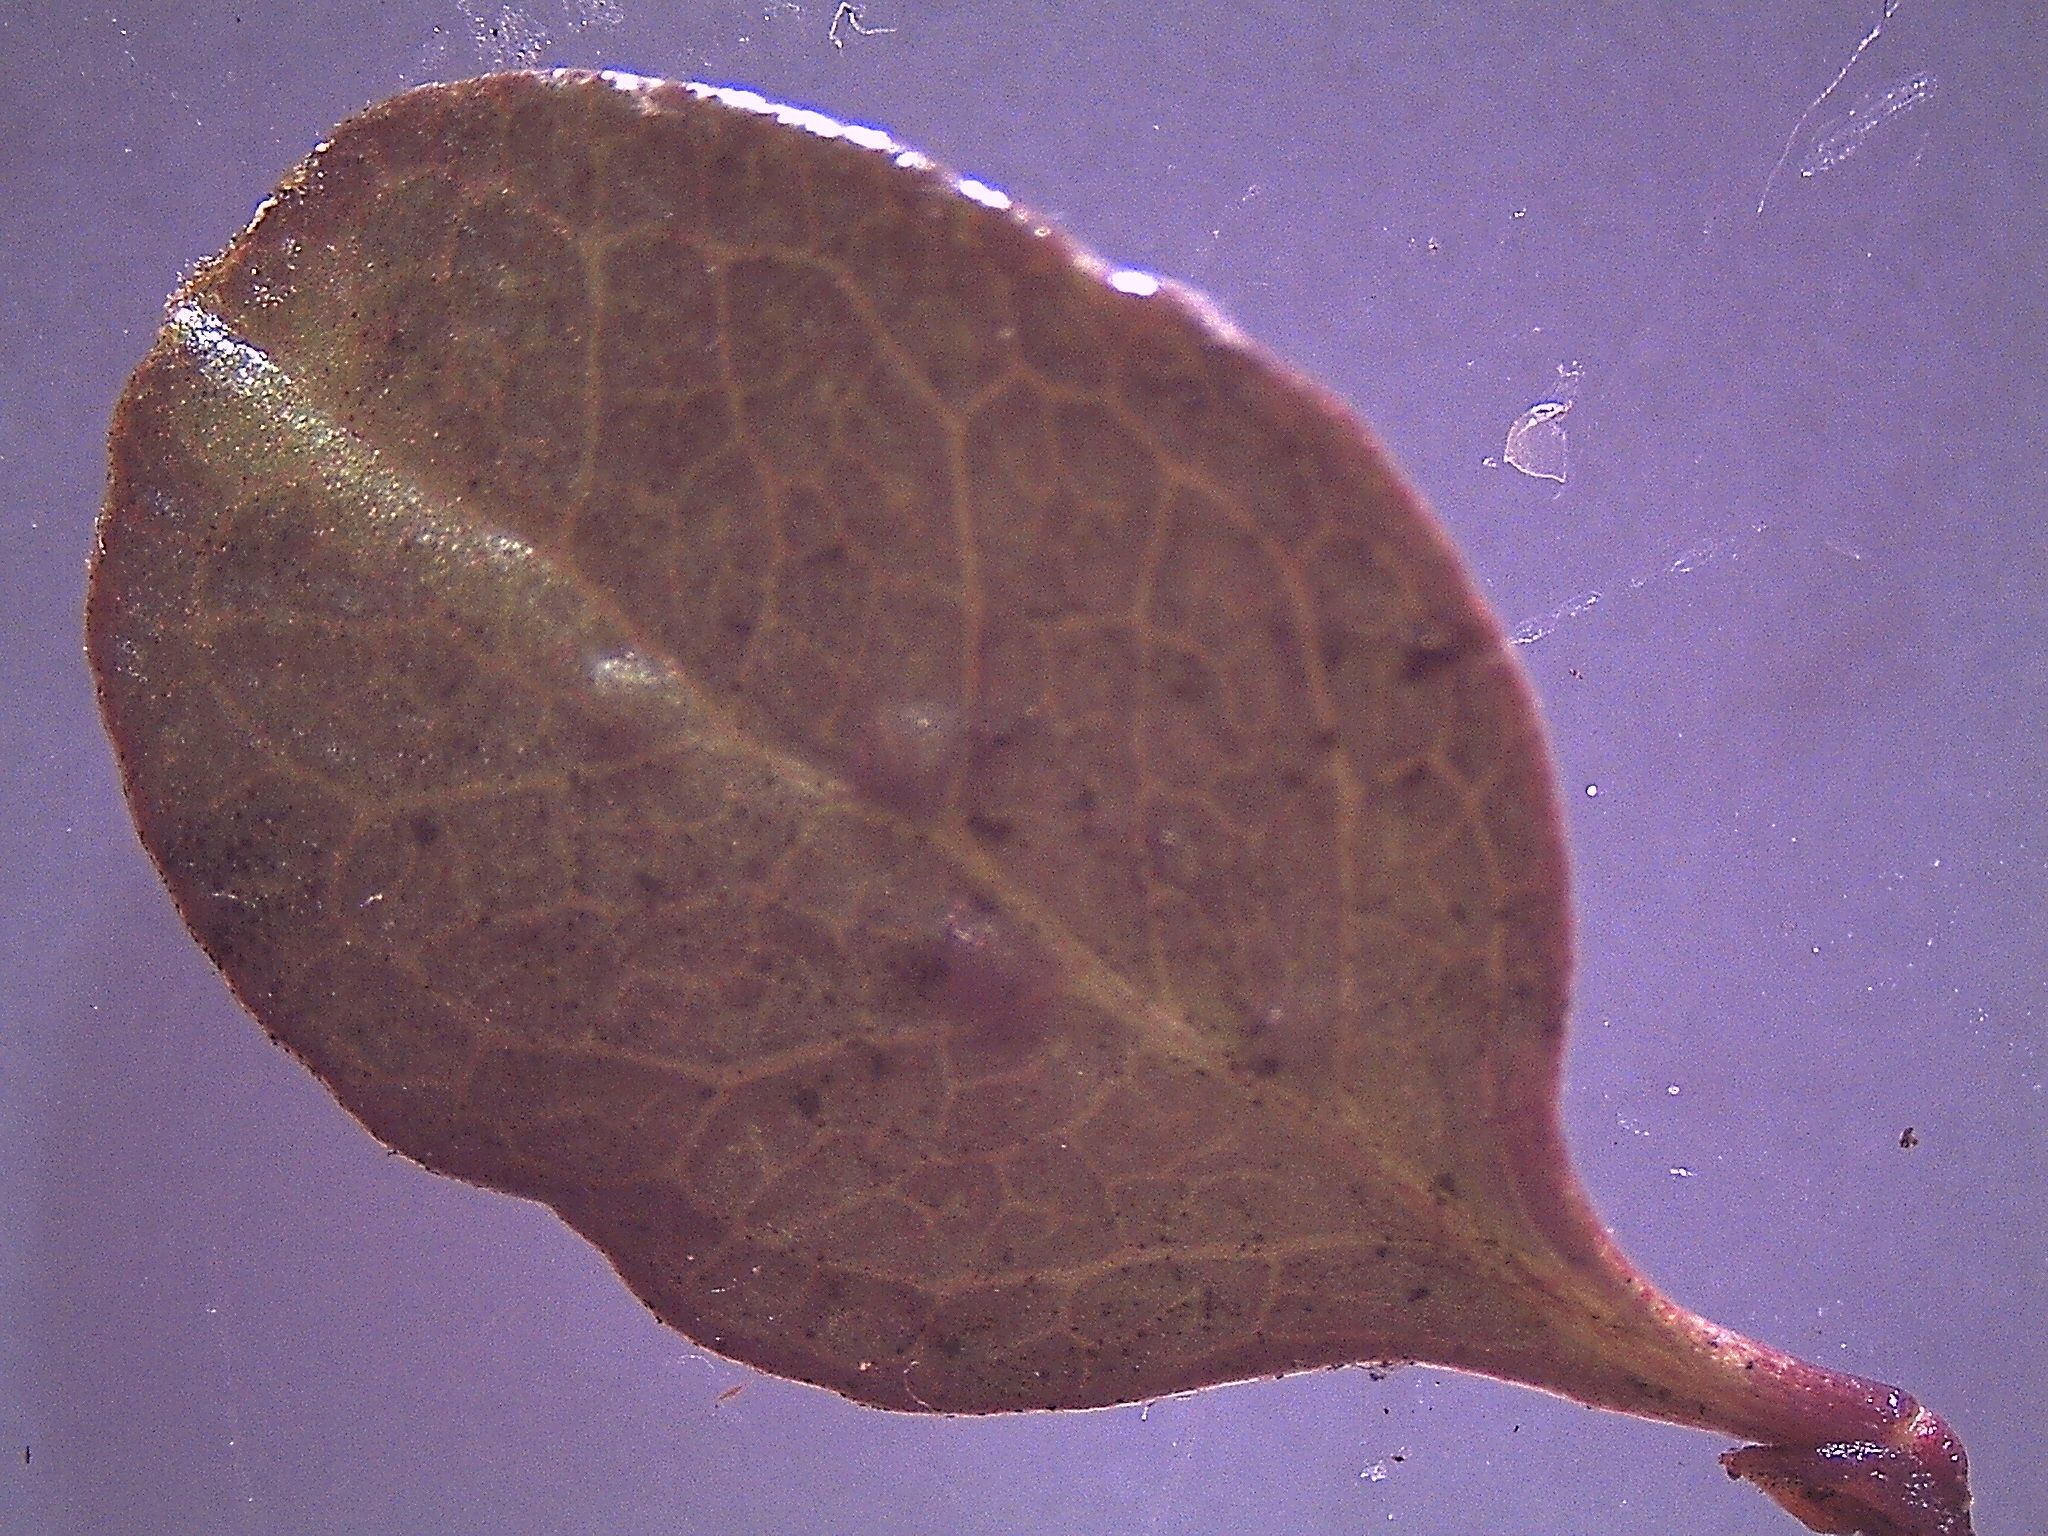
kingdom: Plantae
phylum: Tracheophyta
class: Magnoliopsida
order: Gentianales
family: Rubiaceae
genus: Coprosma
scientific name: Coprosma colensoi
